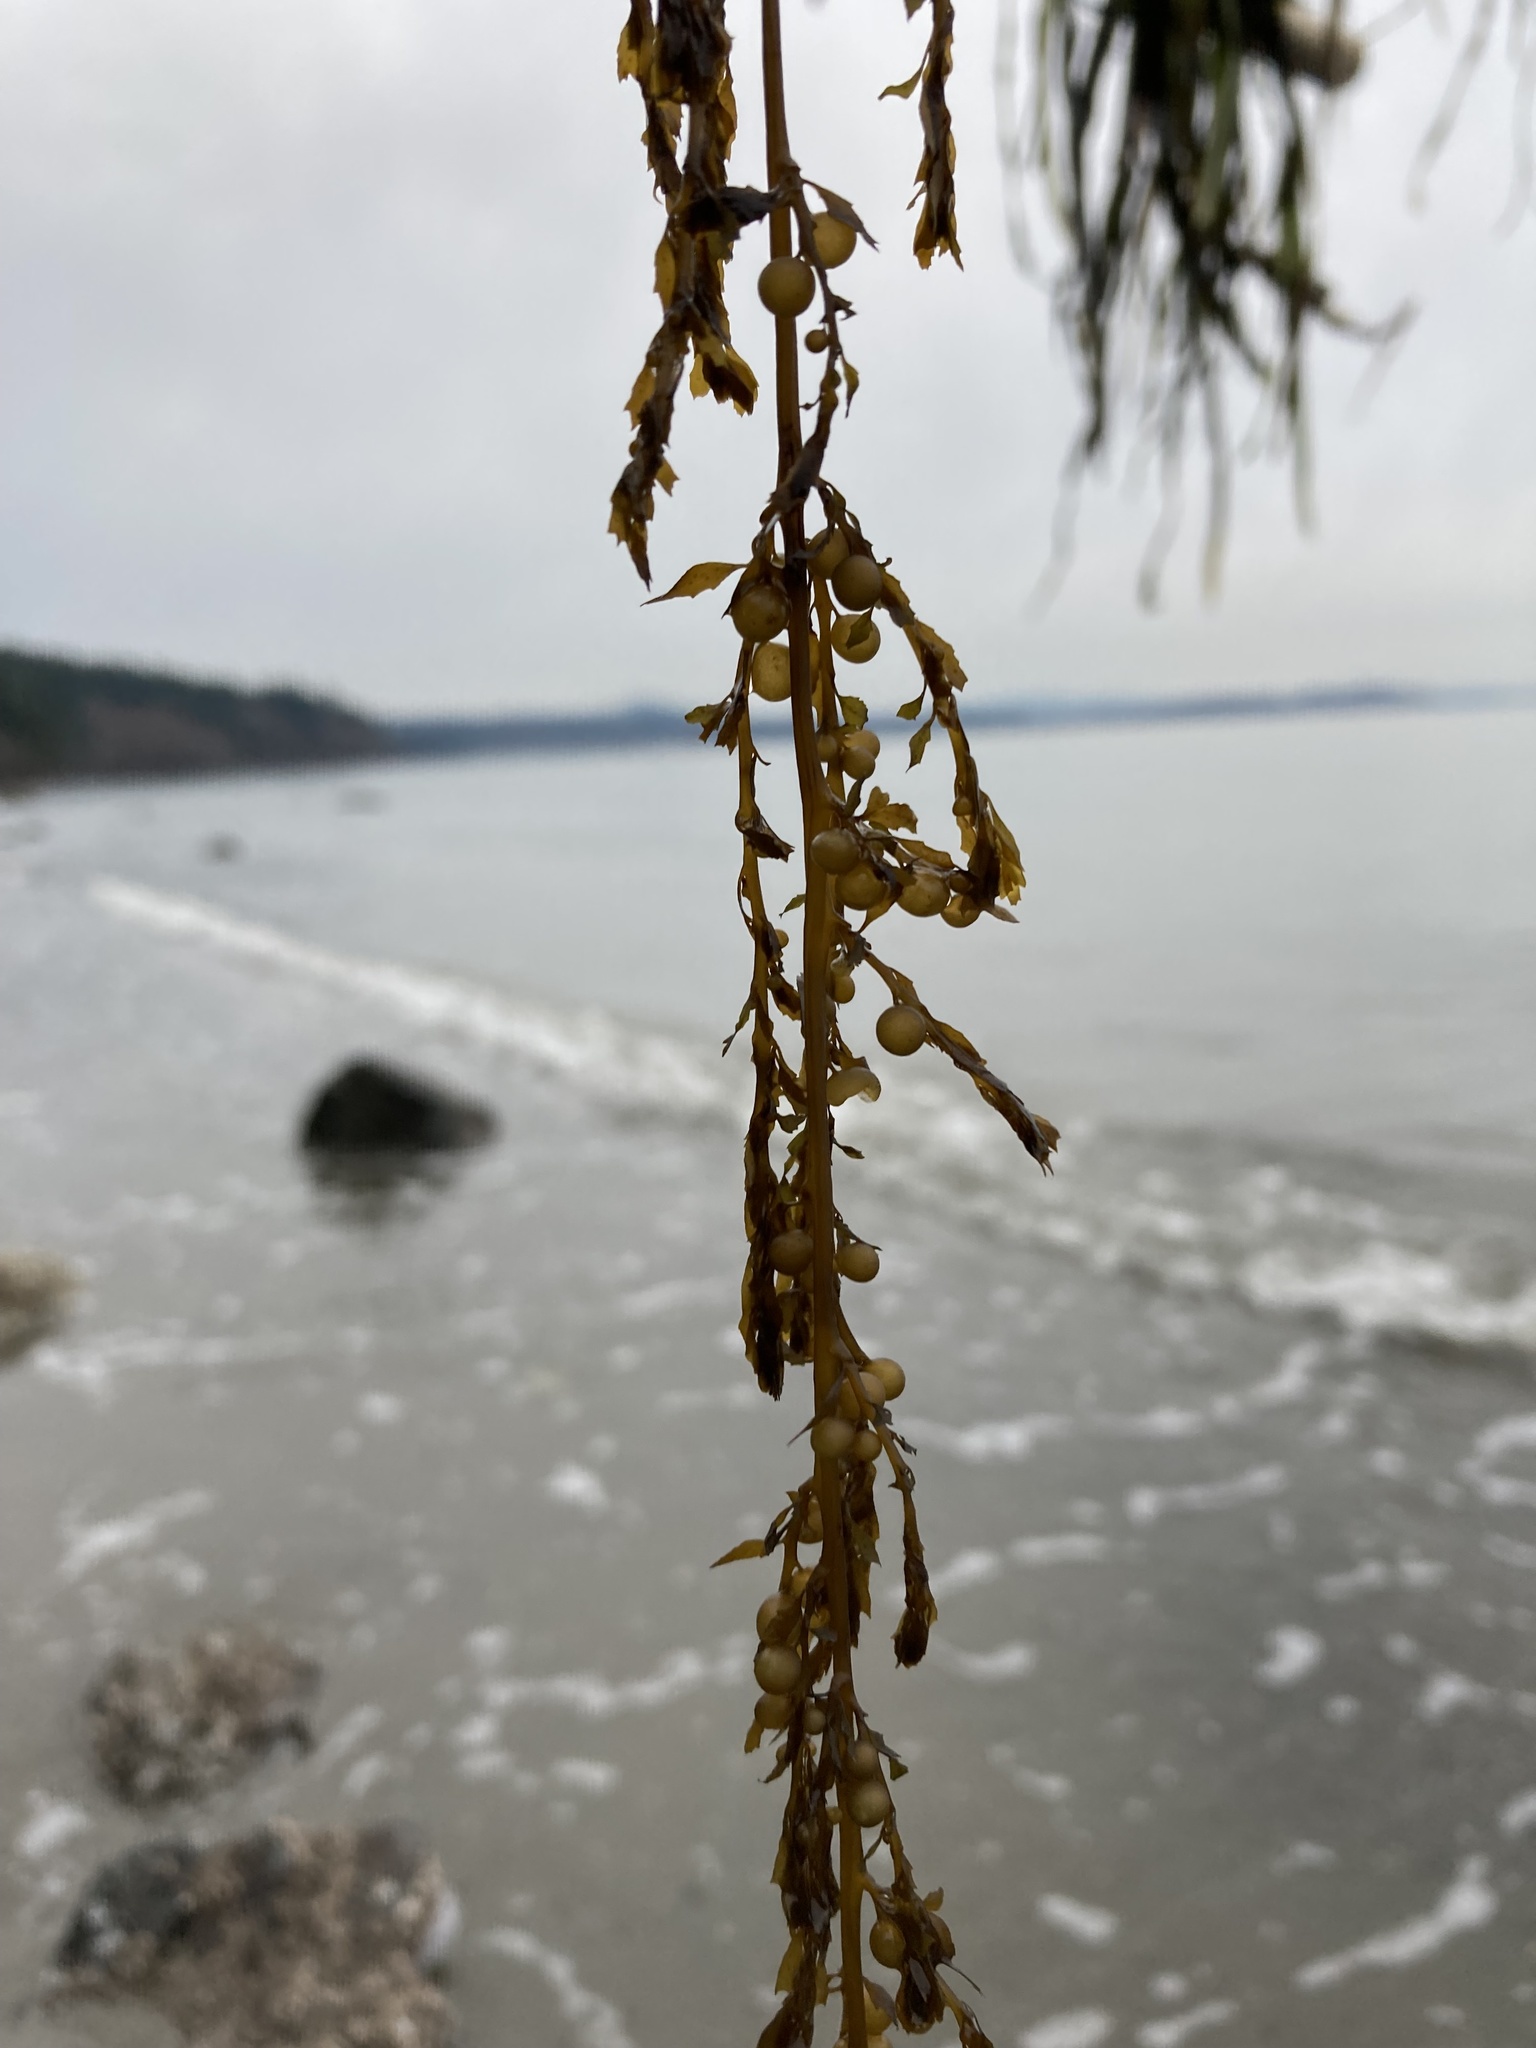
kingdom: Chromista
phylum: Ochrophyta
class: Phaeophyceae
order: Fucales
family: Sargassaceae
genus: Sargassum
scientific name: Sargassum muticum
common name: Japweed
